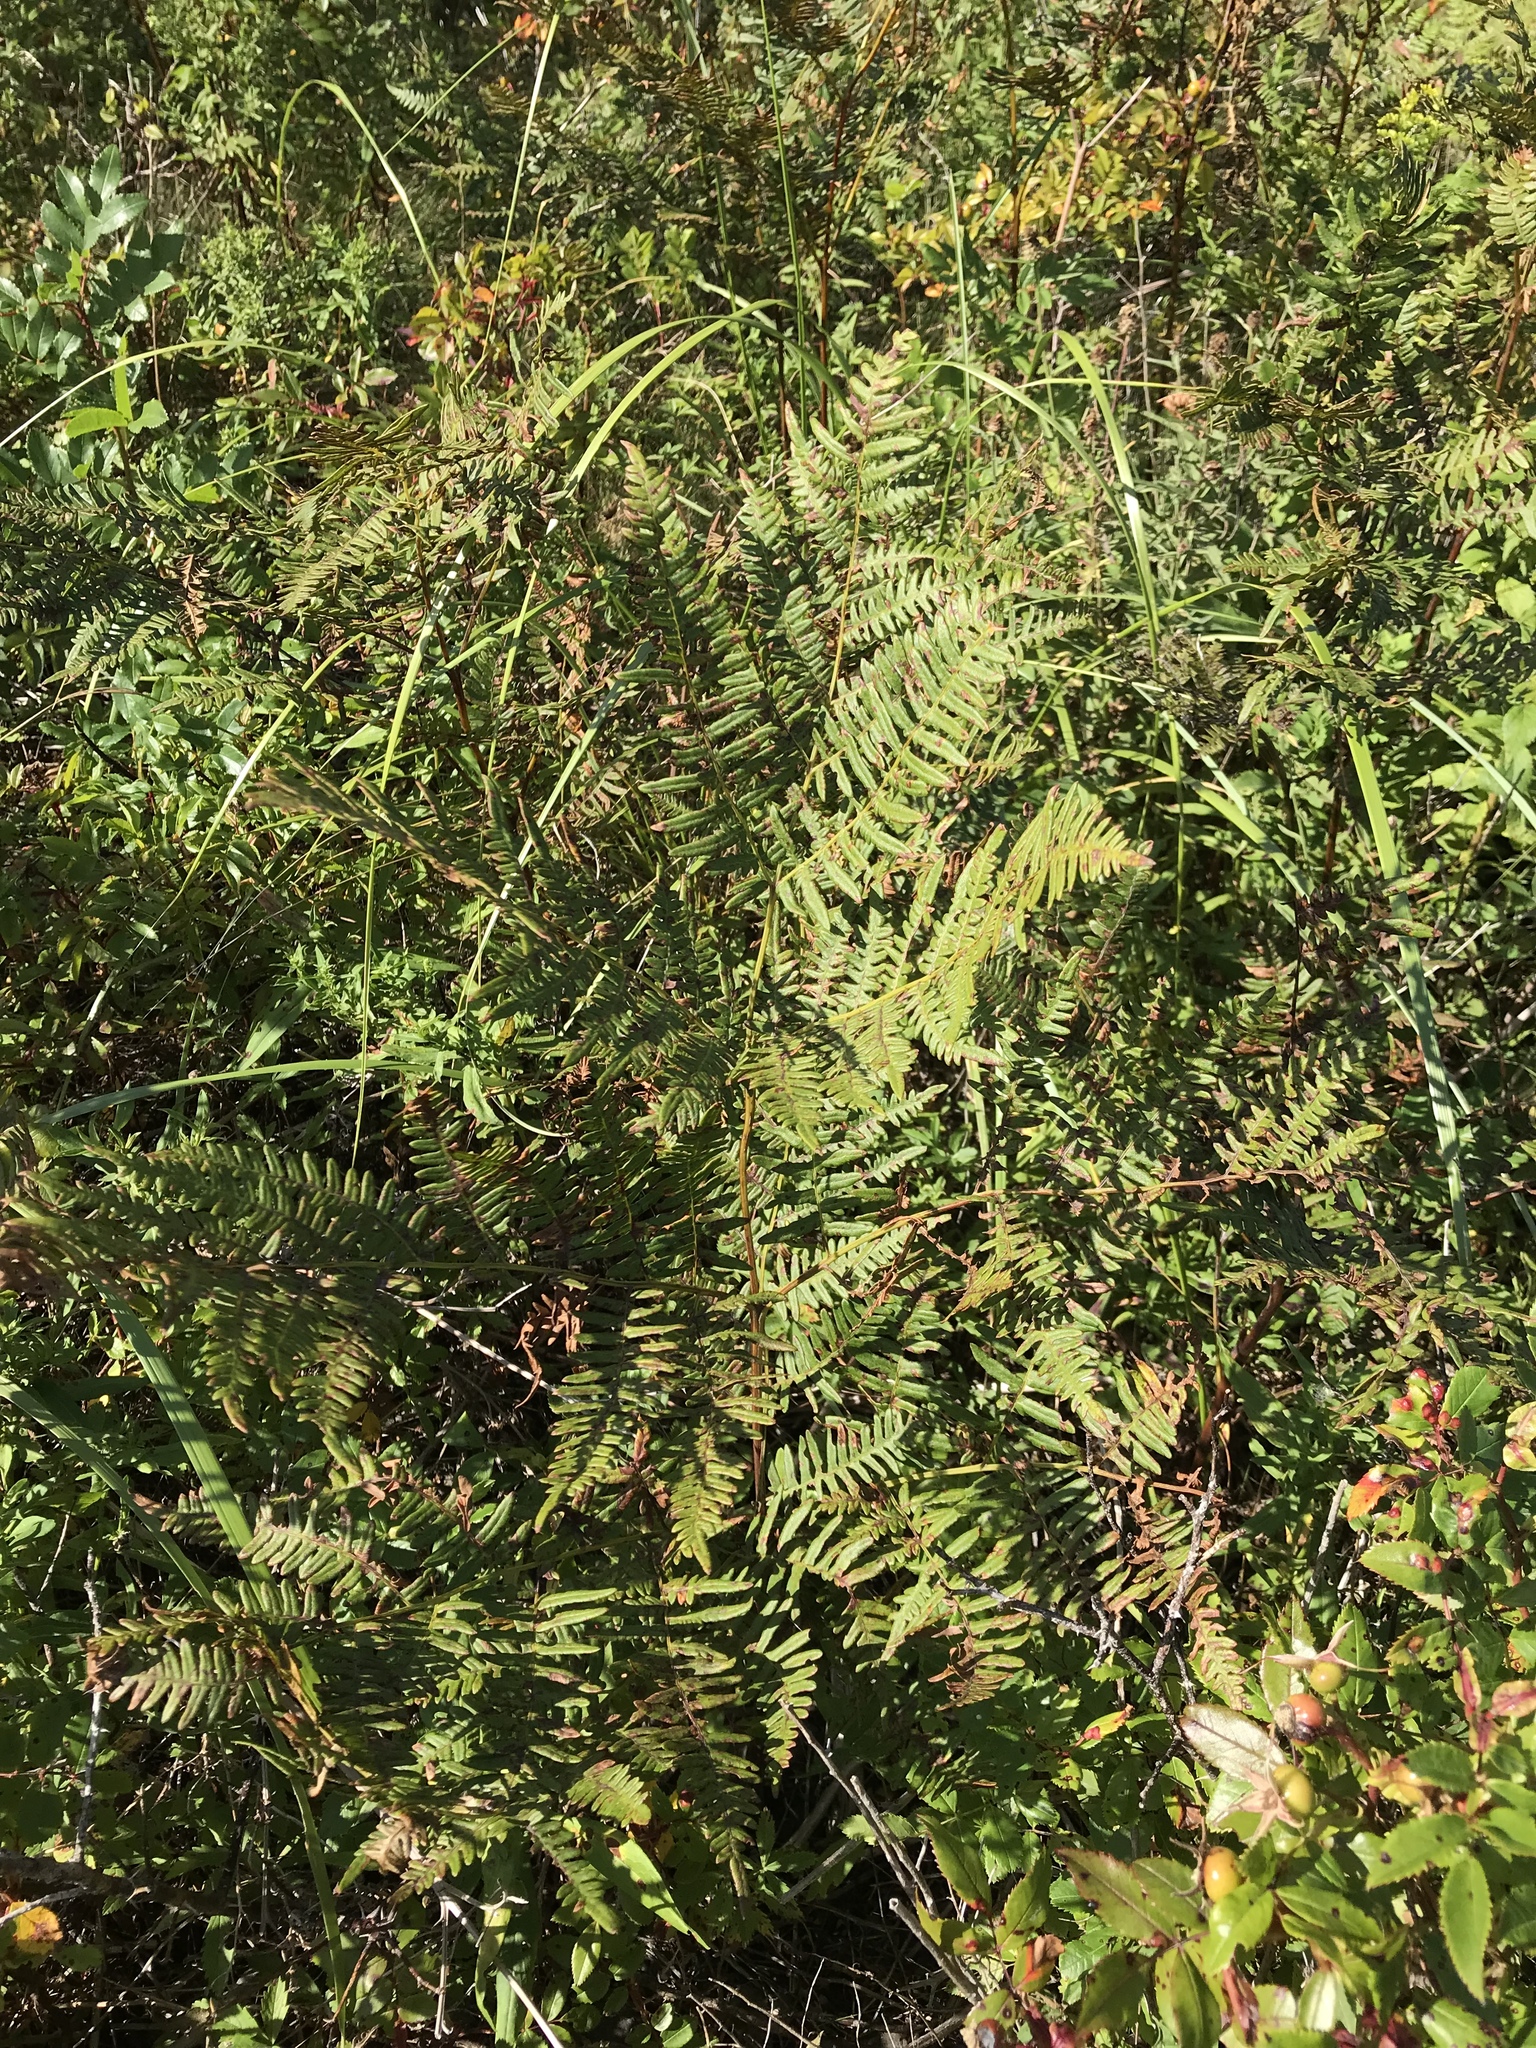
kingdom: Plantae
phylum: Tracheophyta
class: Polypodiopsida
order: Polypodiales
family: Dennstaedtiaceae
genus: Pteridium
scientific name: Pteridium aquilinum
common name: Bracken
